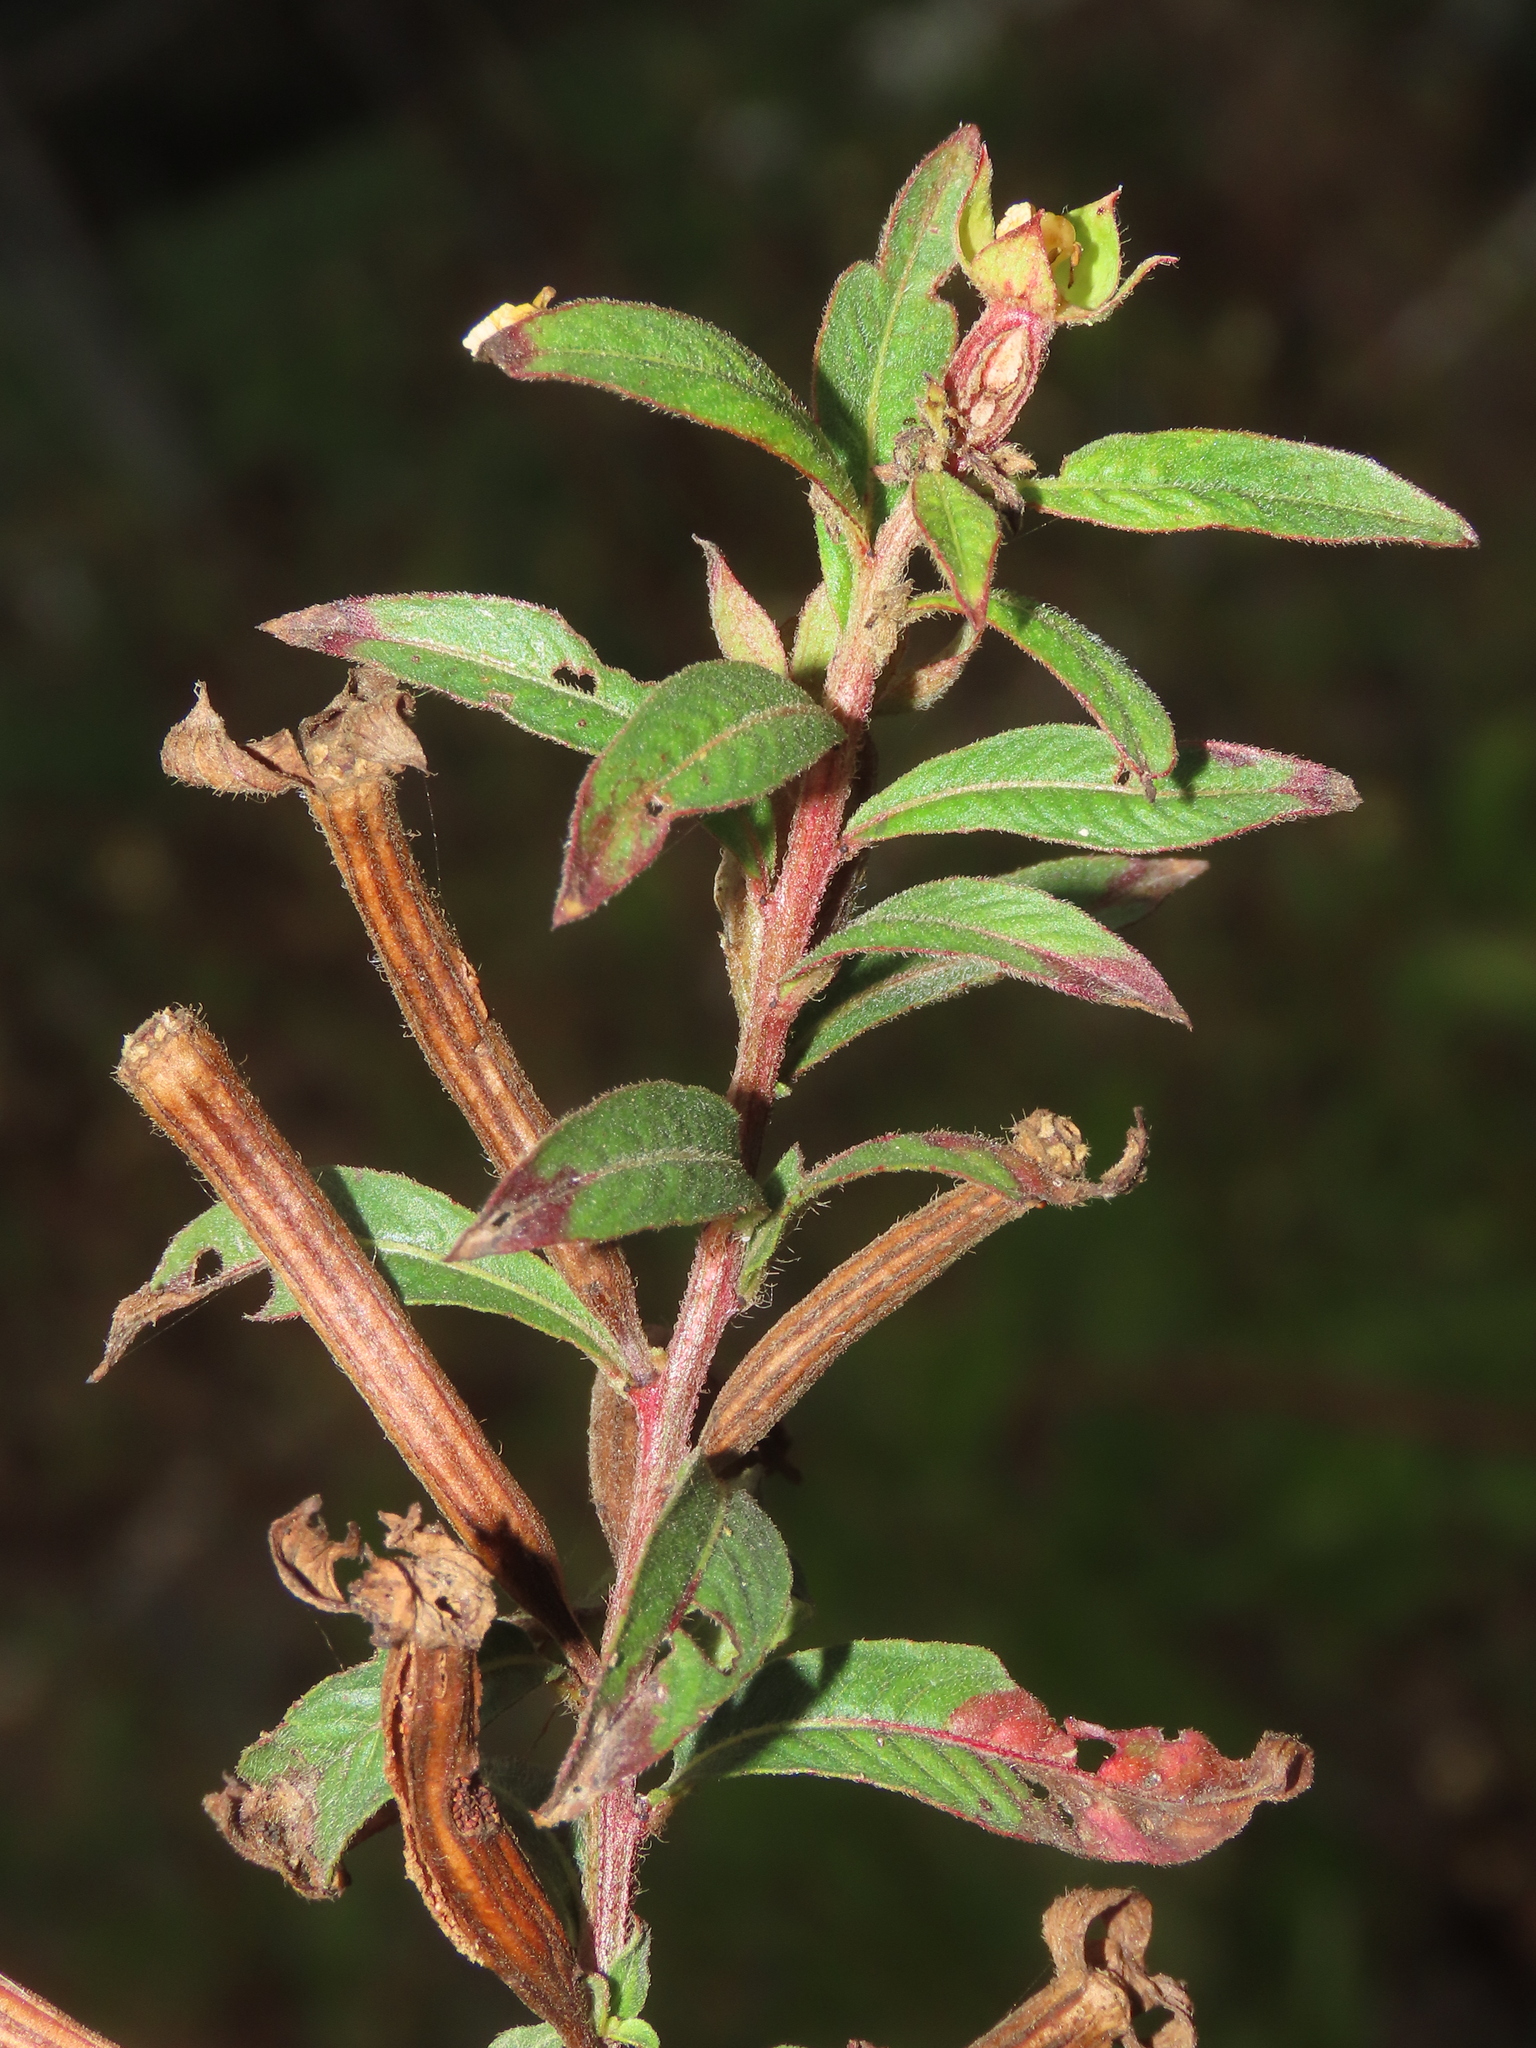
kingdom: Plantae
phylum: Tracheophyta
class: Magnoliopsida
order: Myrtales
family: Onagraceae
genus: Ludwigia
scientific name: Ludwigia octovalvis
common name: Water-primrose
